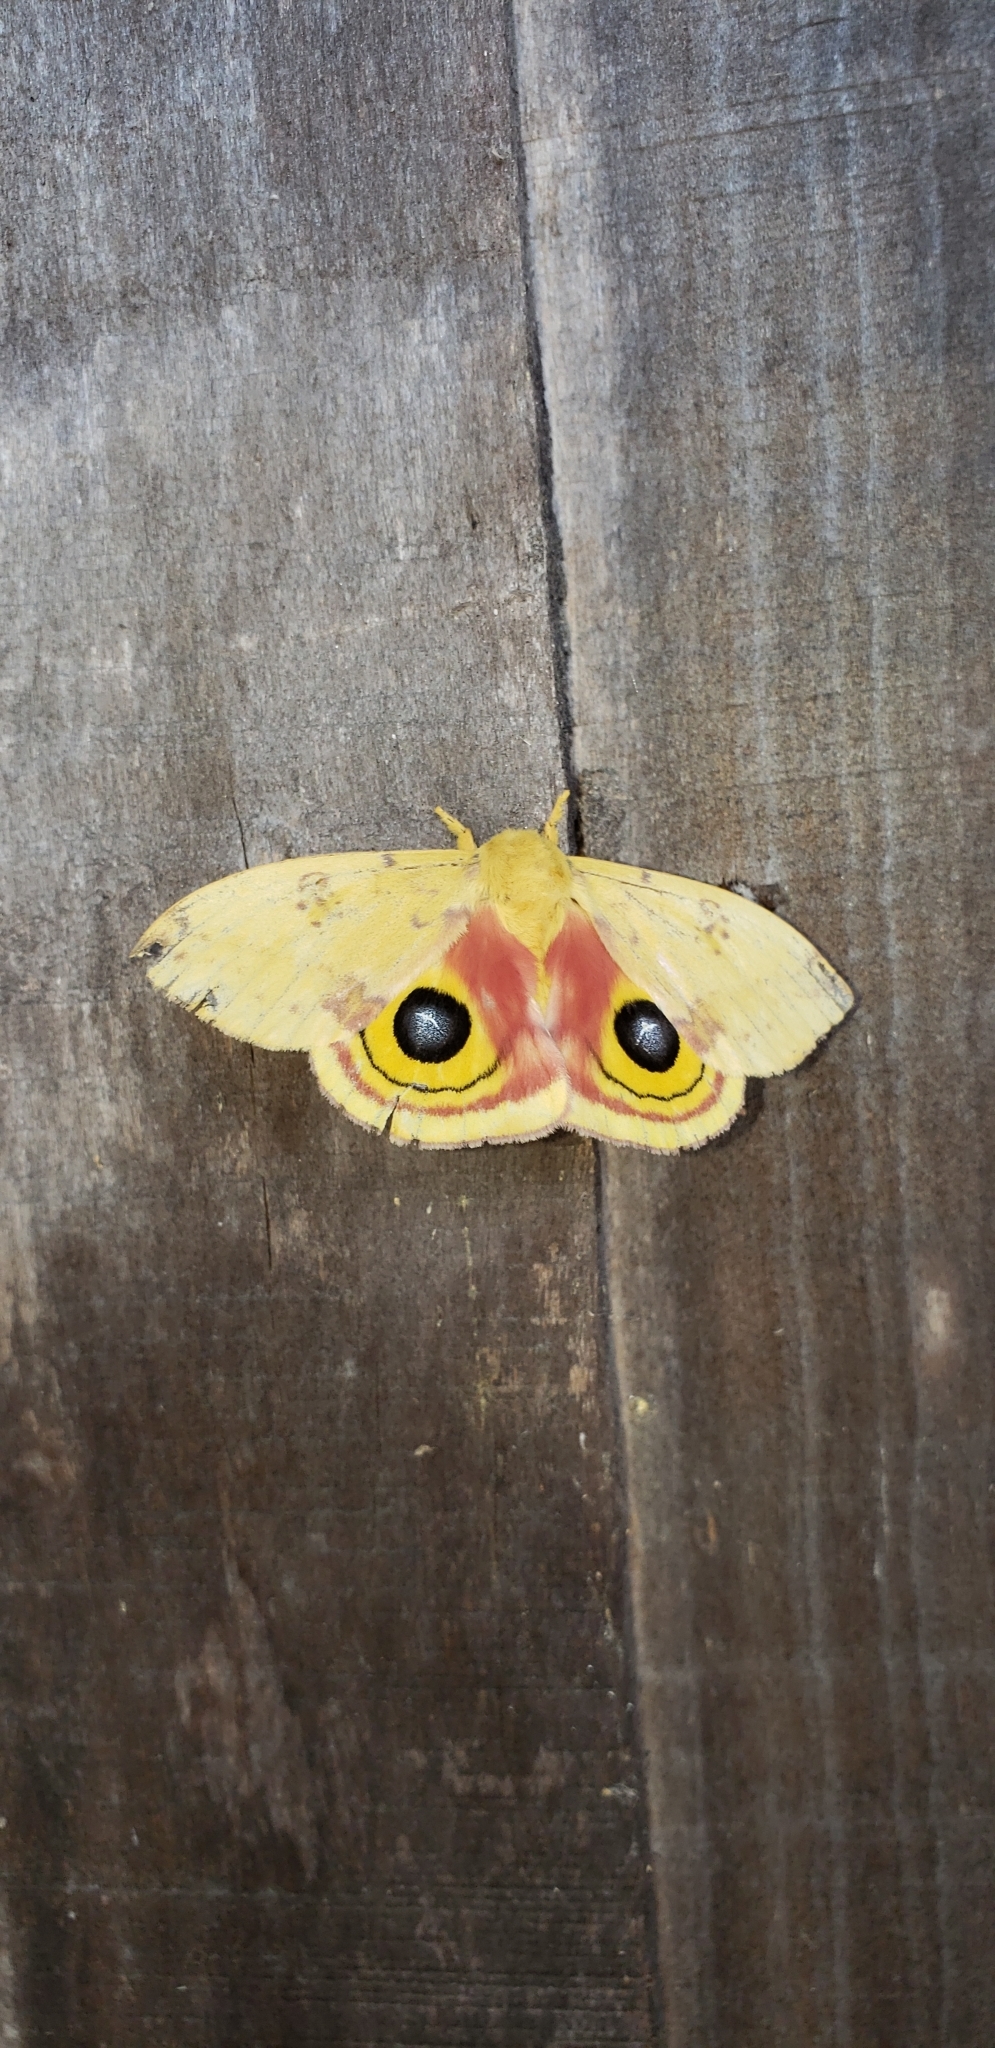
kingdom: Animalia
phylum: Arthropoda
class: Insecta
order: Lepidoptera
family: Saturniidae
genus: Automeris
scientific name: Automeris io
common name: Io moth
